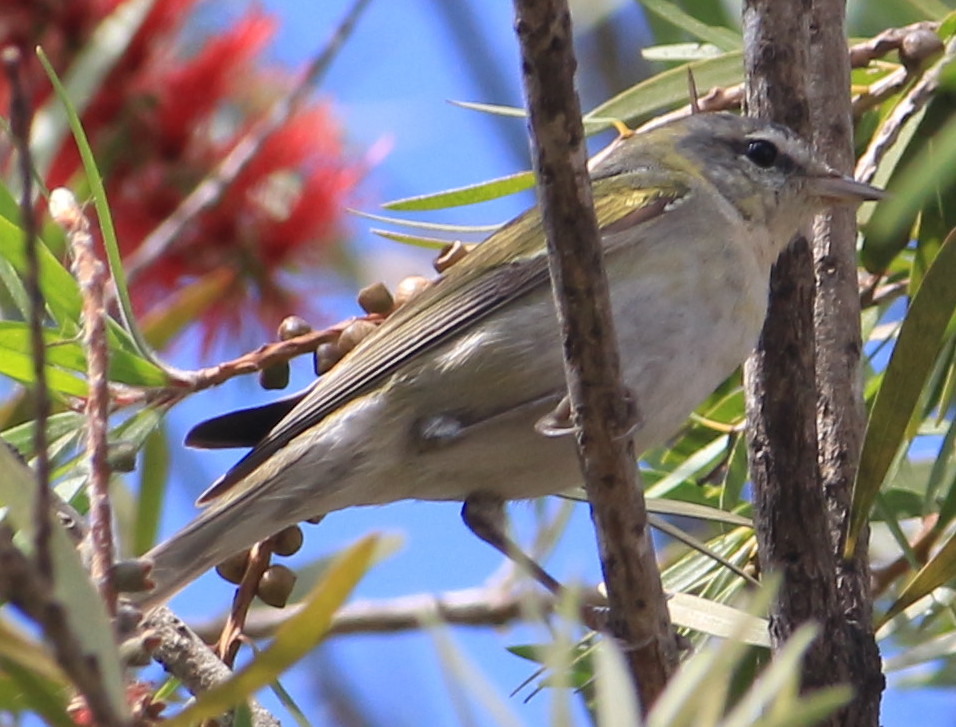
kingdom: Animalia
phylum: Chordata
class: Aves
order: Passeriformes
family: Parulidae
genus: Leiothlypis
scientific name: Leiothlypis peregrina
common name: Tennessee warbler
